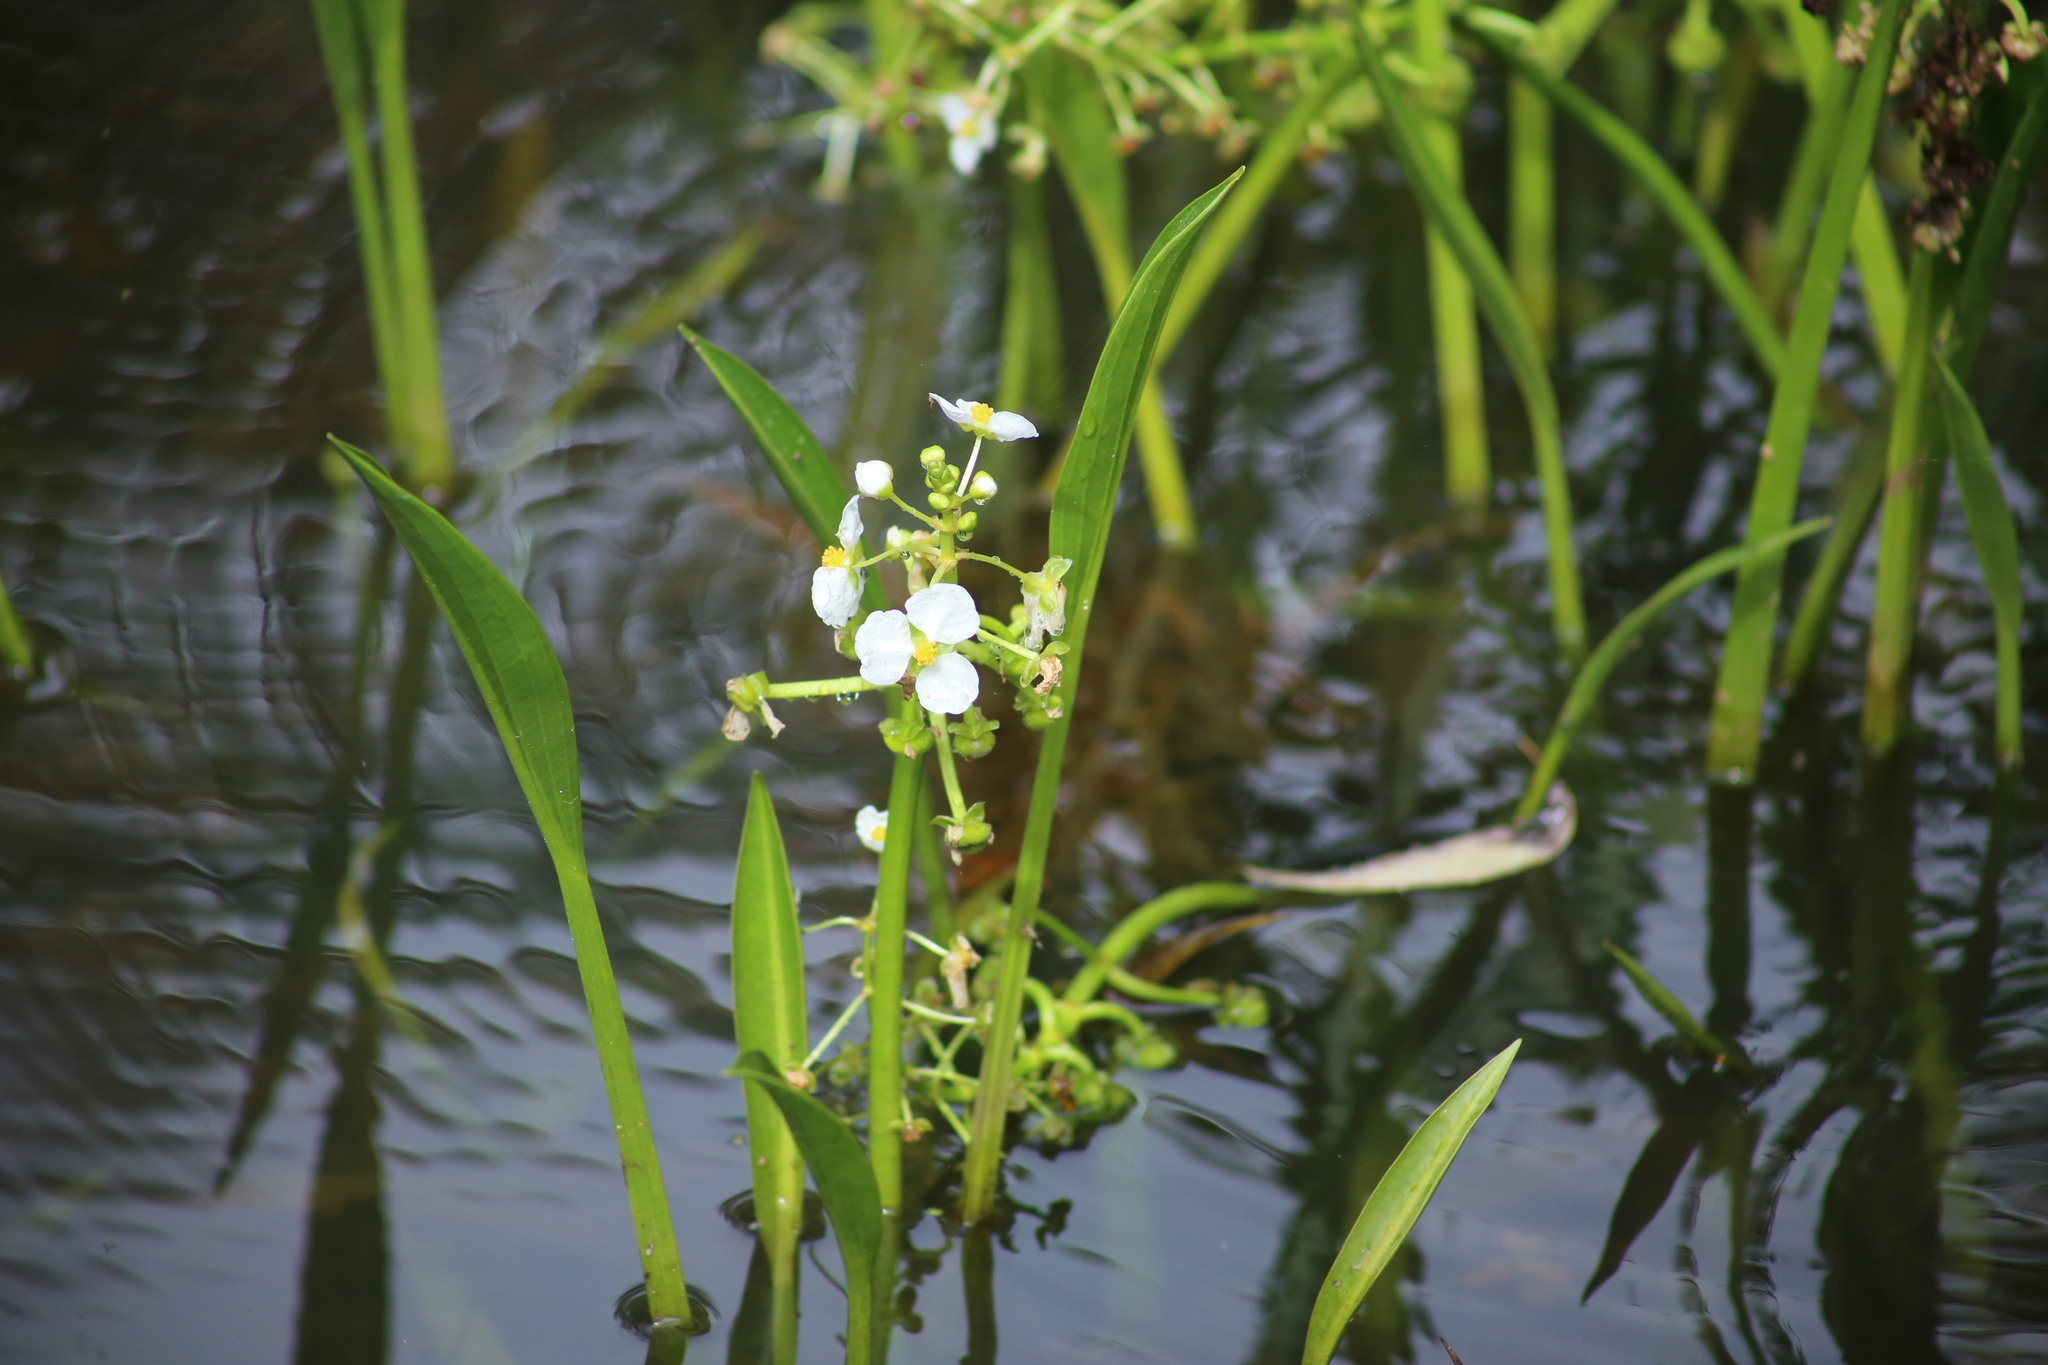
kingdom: Plantae
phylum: Tracheophyta
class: Liliopsida
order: Alismatales
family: Alismataceae
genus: Sagittaria
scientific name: Sagittaria platyphylla
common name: Broad-leaf arrowhead
